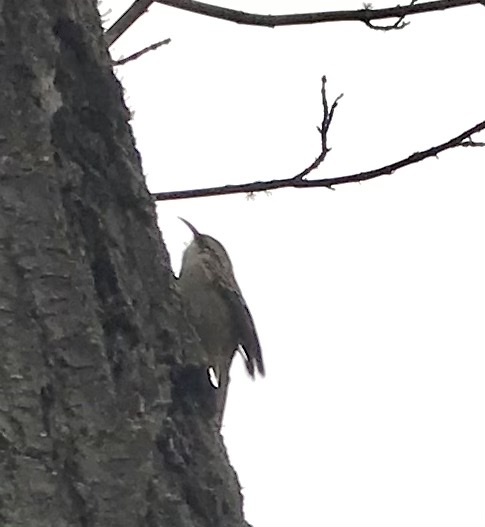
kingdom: Animalia
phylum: Chordata
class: Aves
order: Passeriformes
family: Certhiidae
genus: Certhia
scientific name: Certhia americana
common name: Brown creeper
